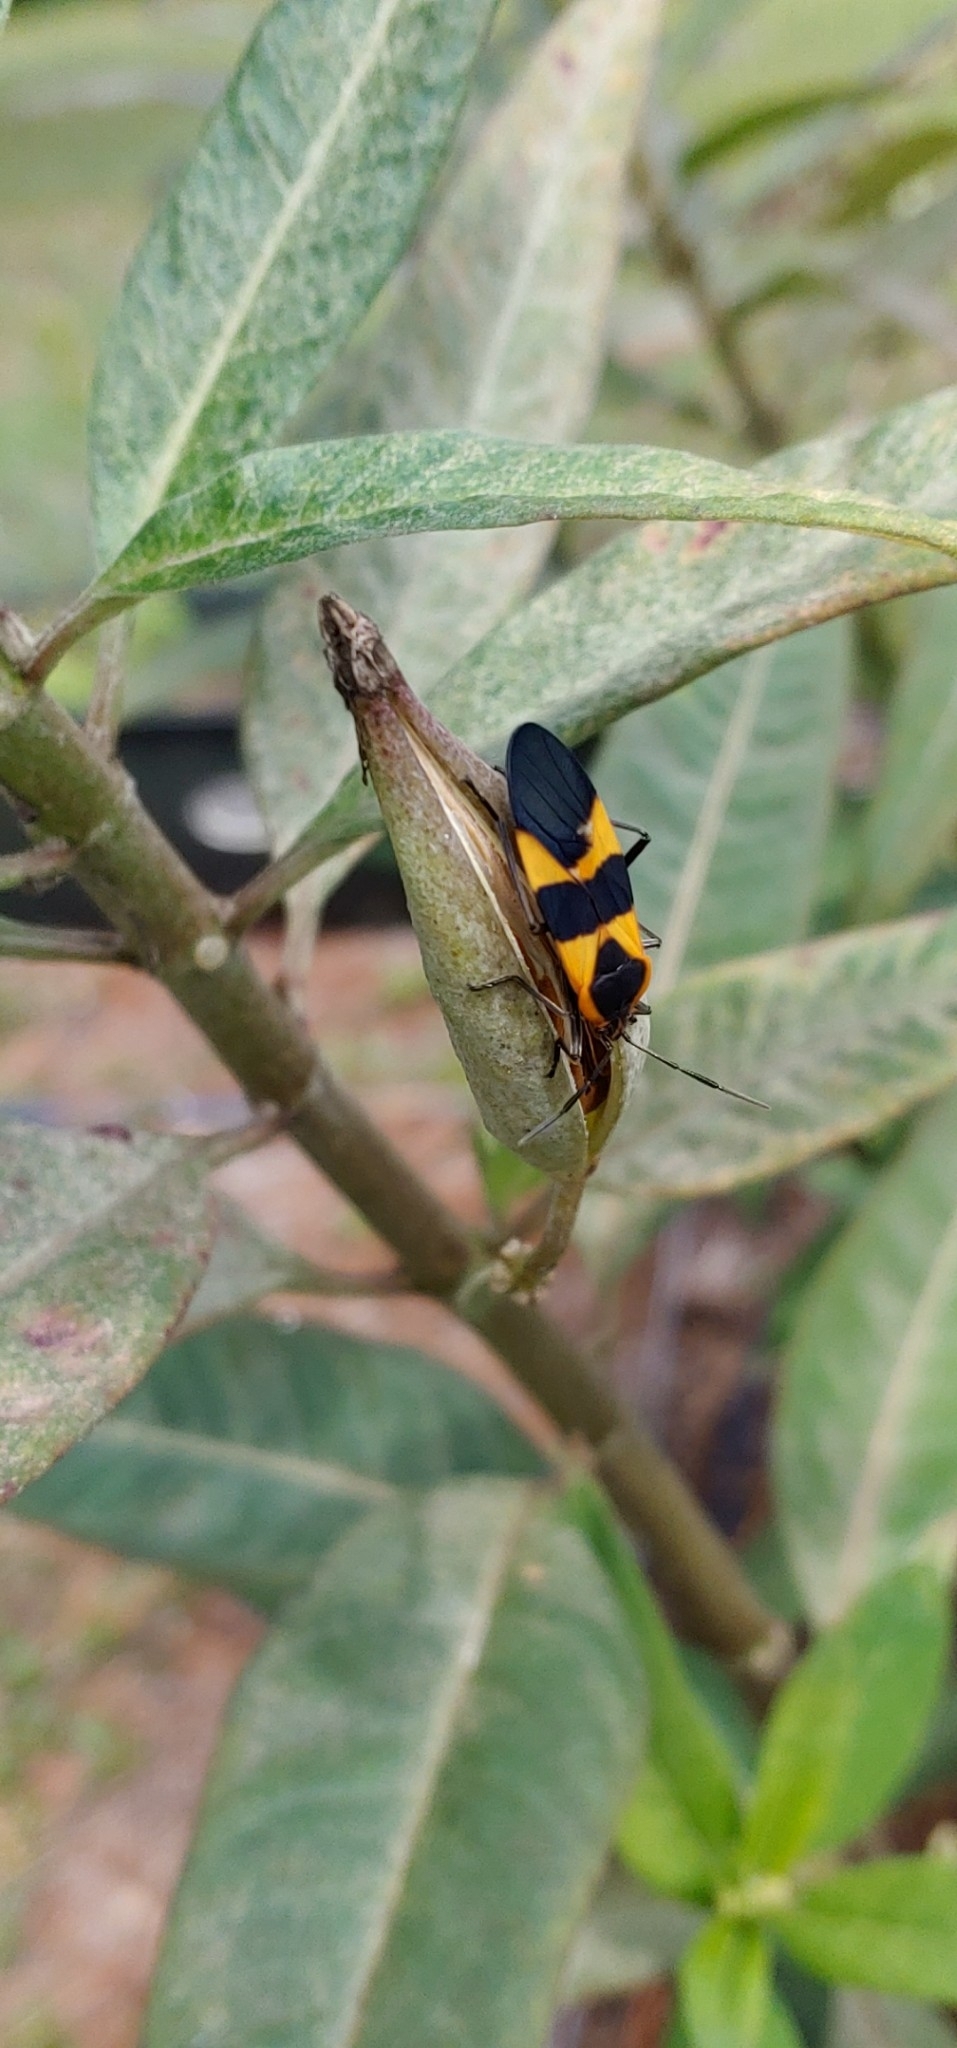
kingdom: Animalia
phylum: Arthropoda
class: Insecta
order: Hemiptera
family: Lygaeidae
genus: Oncopeltus
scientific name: Oncopeltus fasciatus
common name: Large milkweed bug
